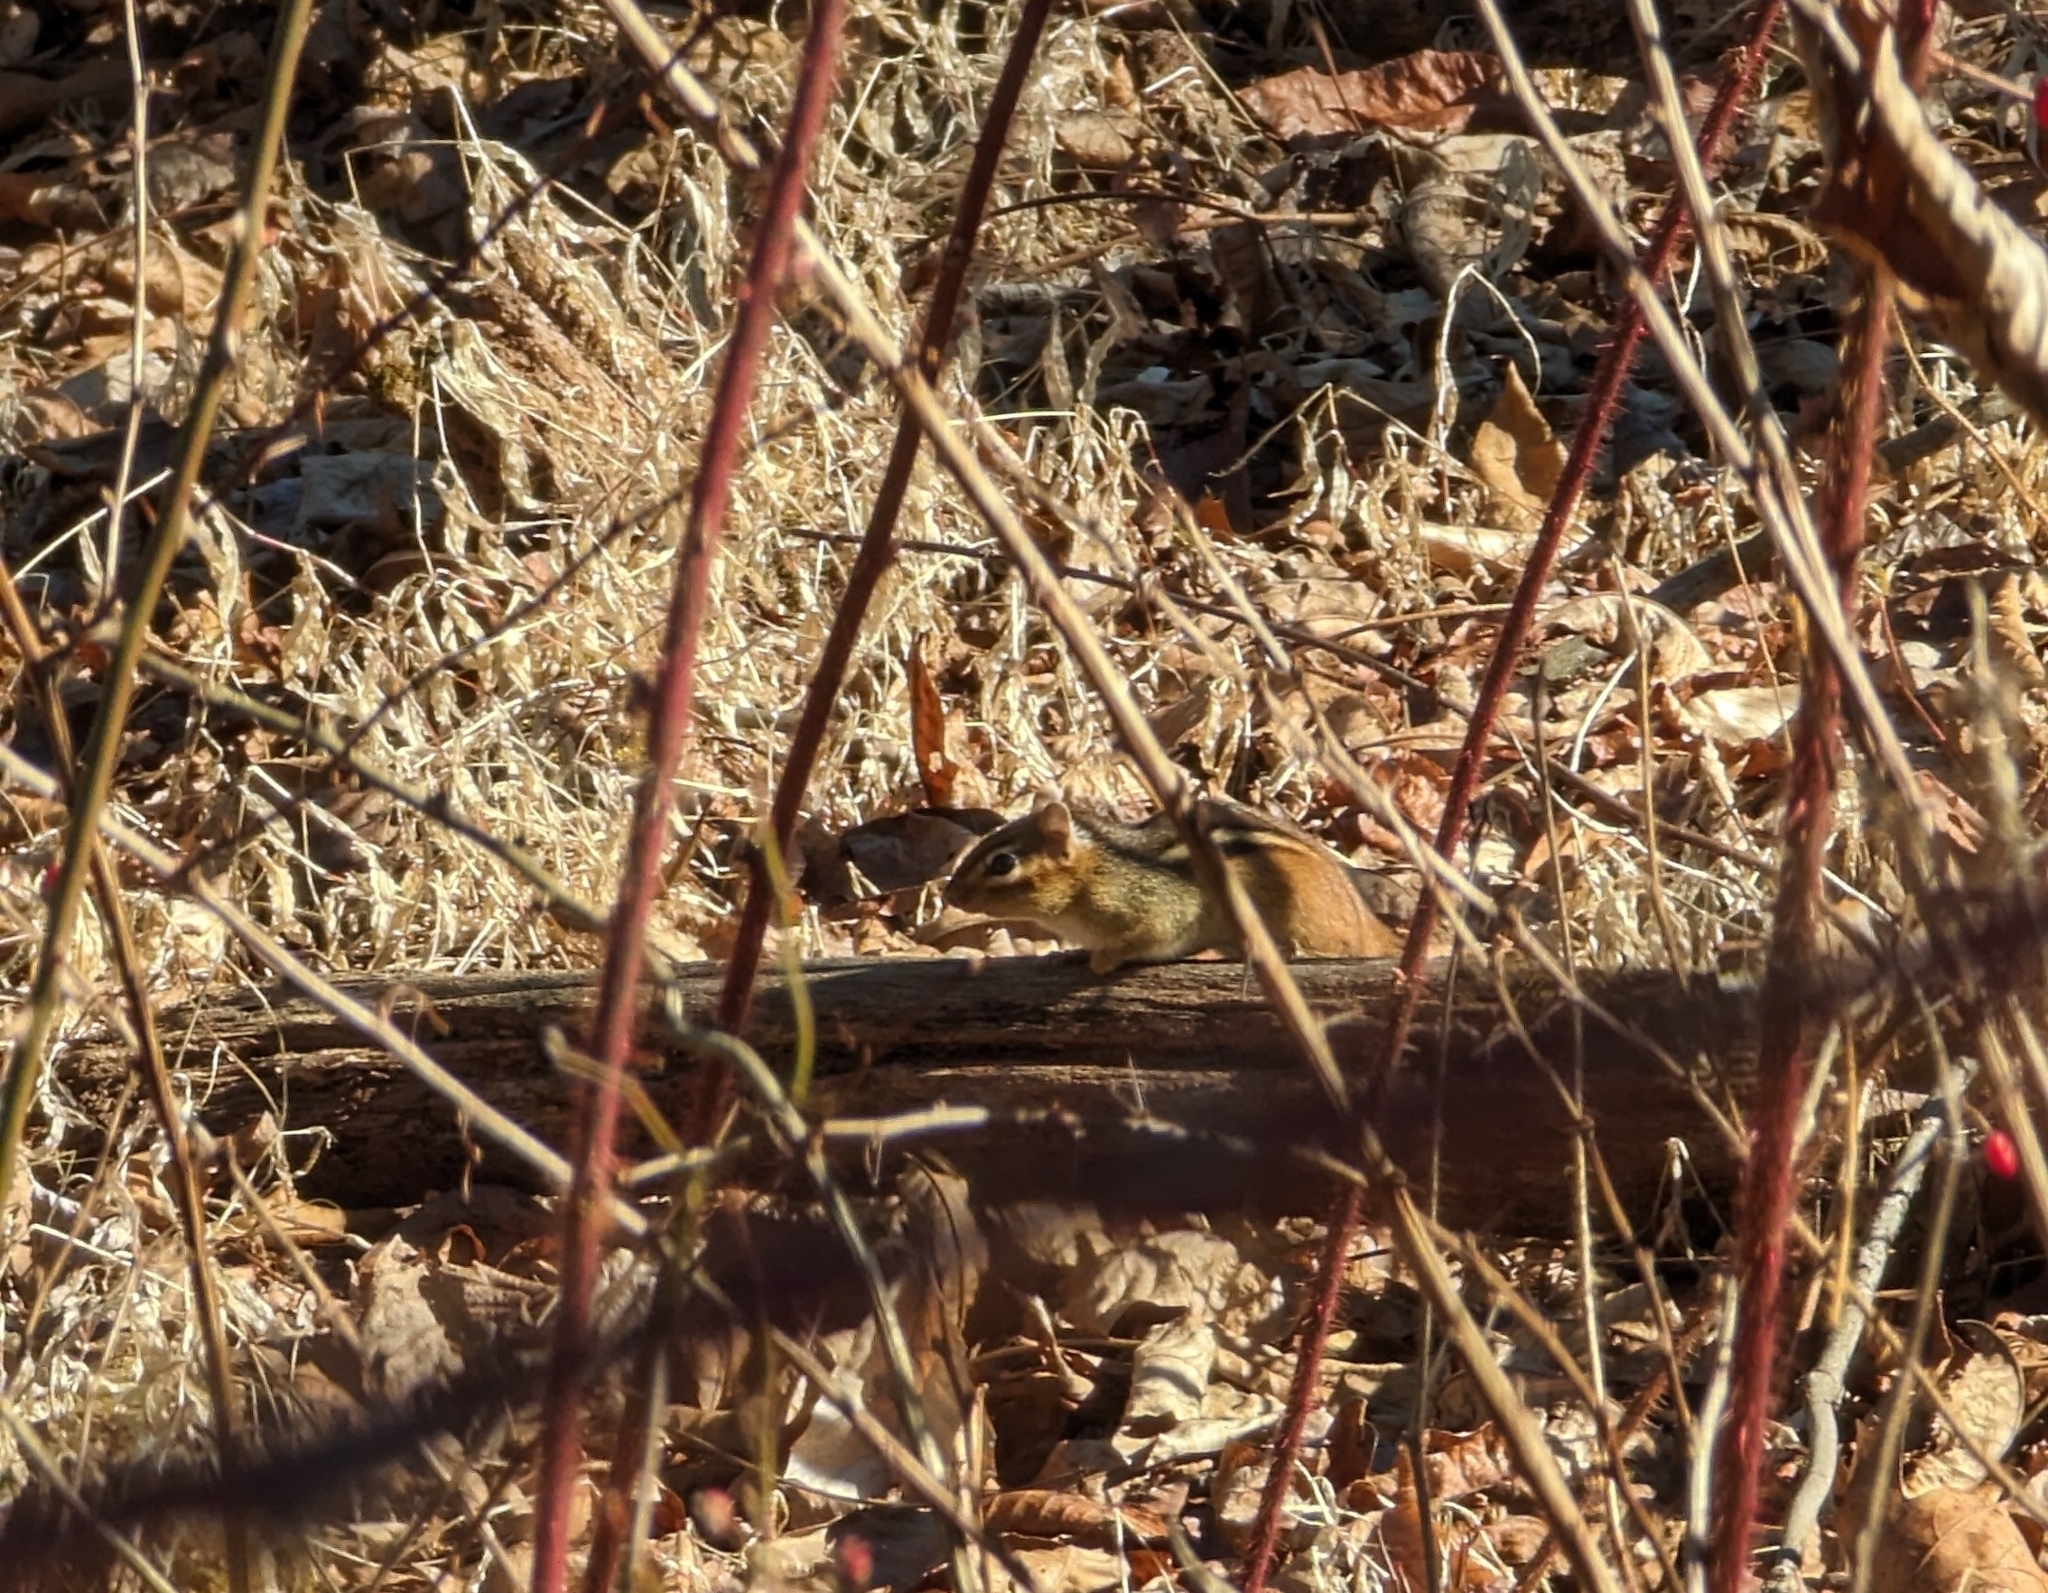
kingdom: Animalia
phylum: Chordata
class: Mammalia
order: Rodentia
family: Sciuridae
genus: Tamias
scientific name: Tamias striatus
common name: Eastern chipmunk
